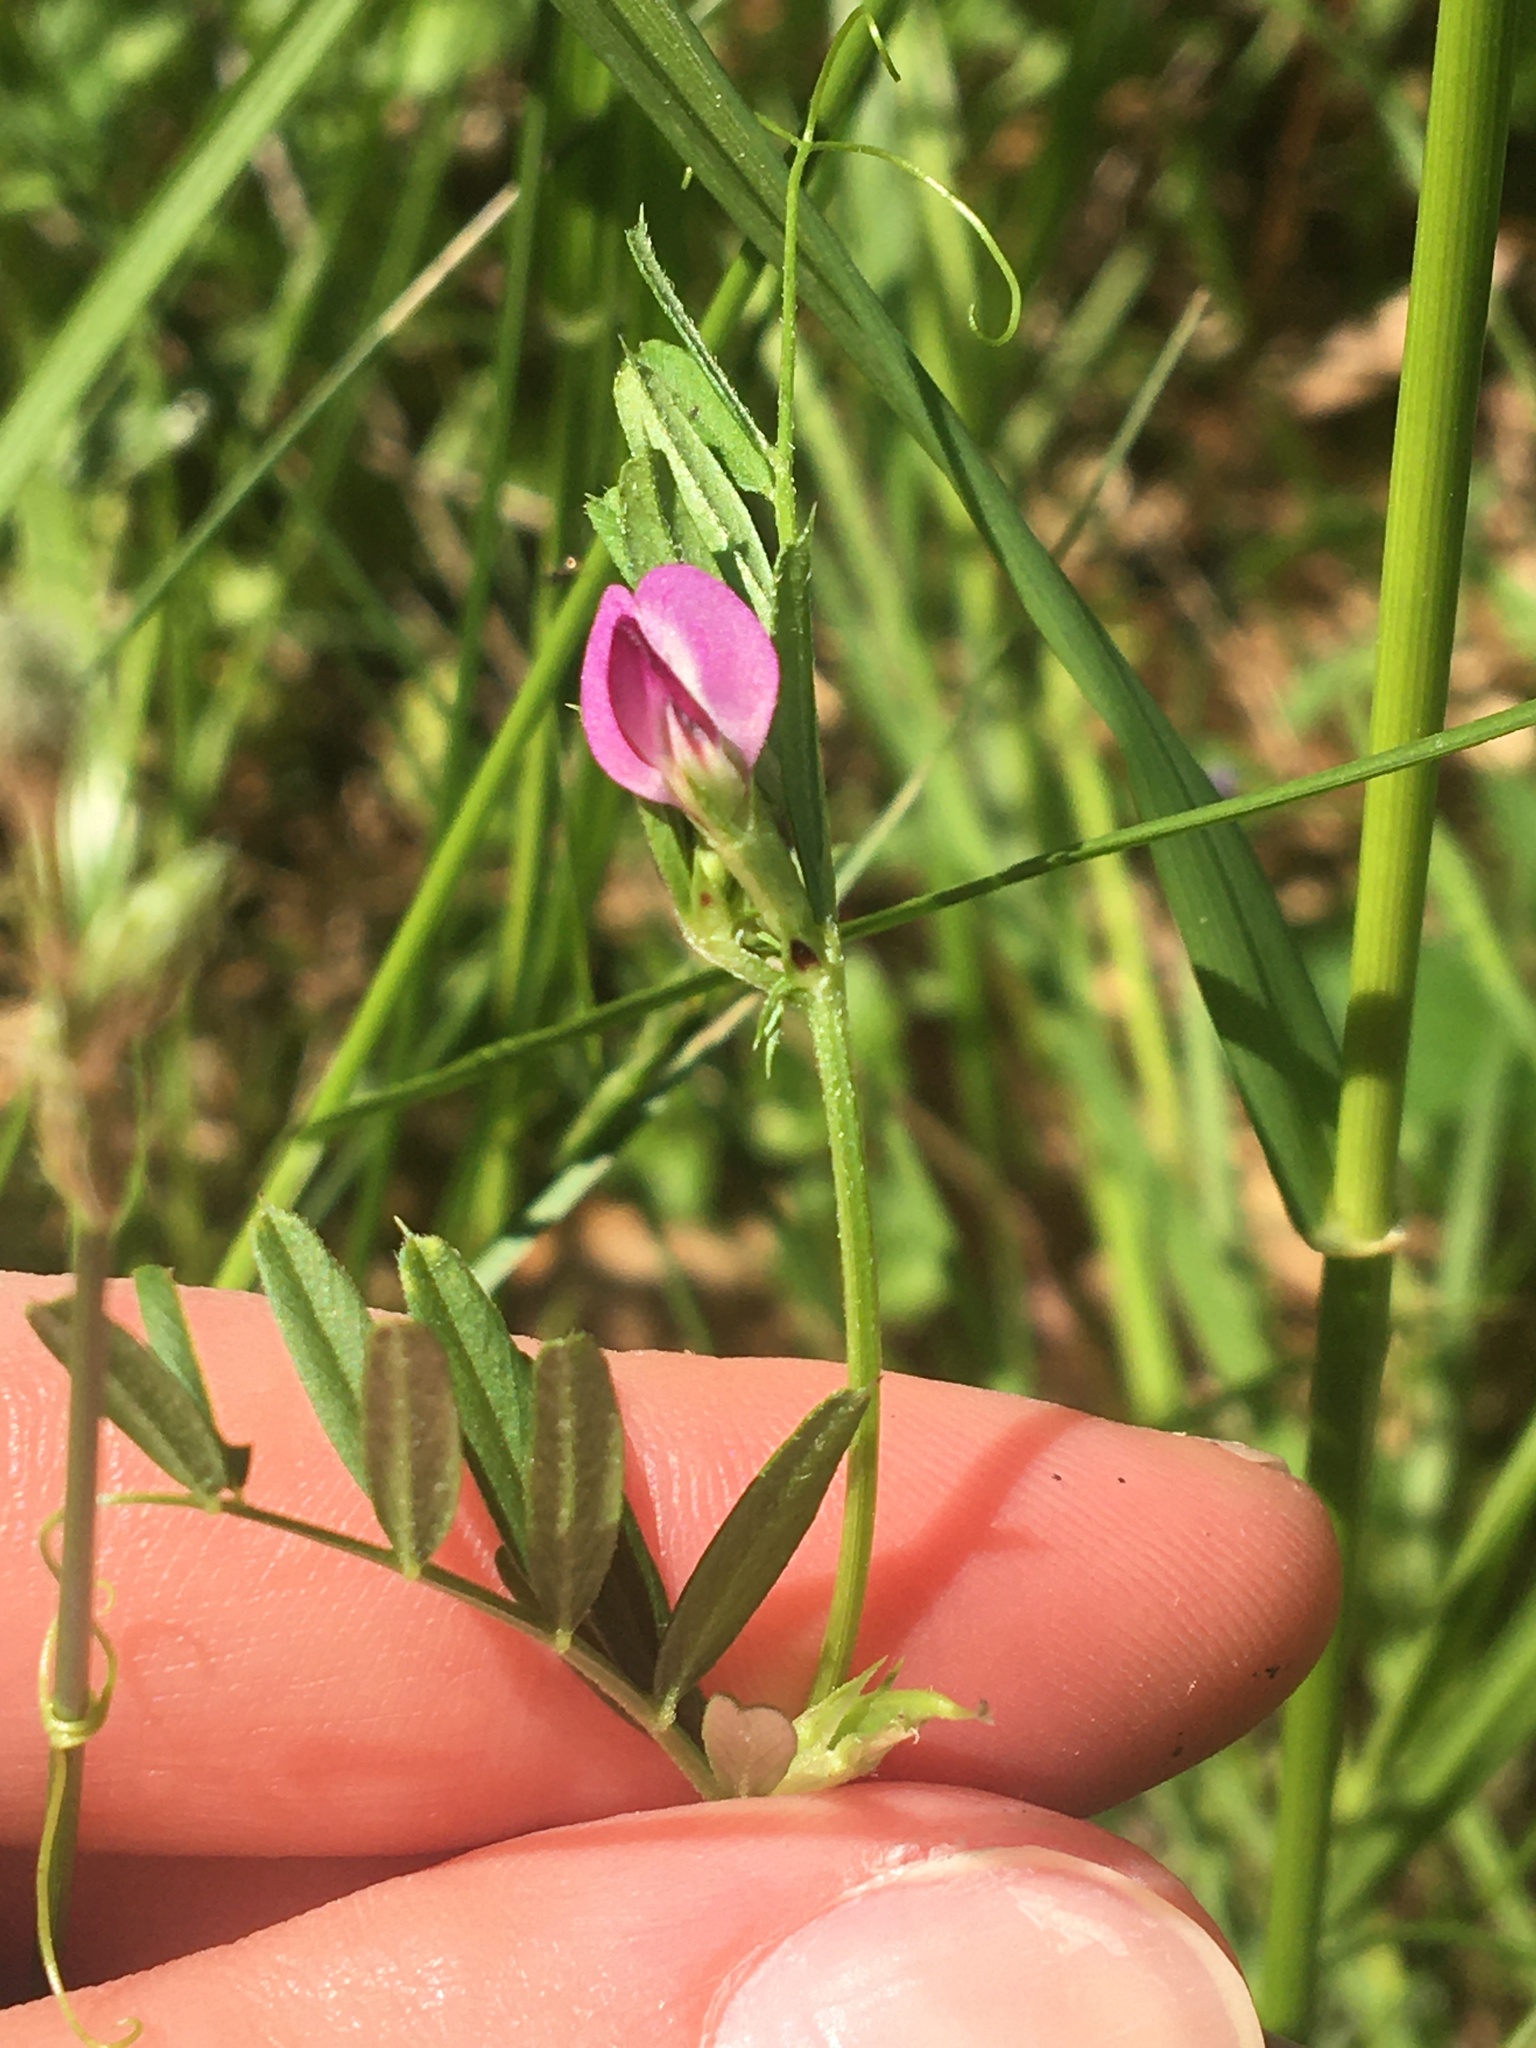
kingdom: Plantae
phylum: Tracheophyta
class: Magnoliopsida
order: Fabales
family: Fabaceae
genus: Vicia
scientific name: Vicia sativa
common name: Garden vetch
